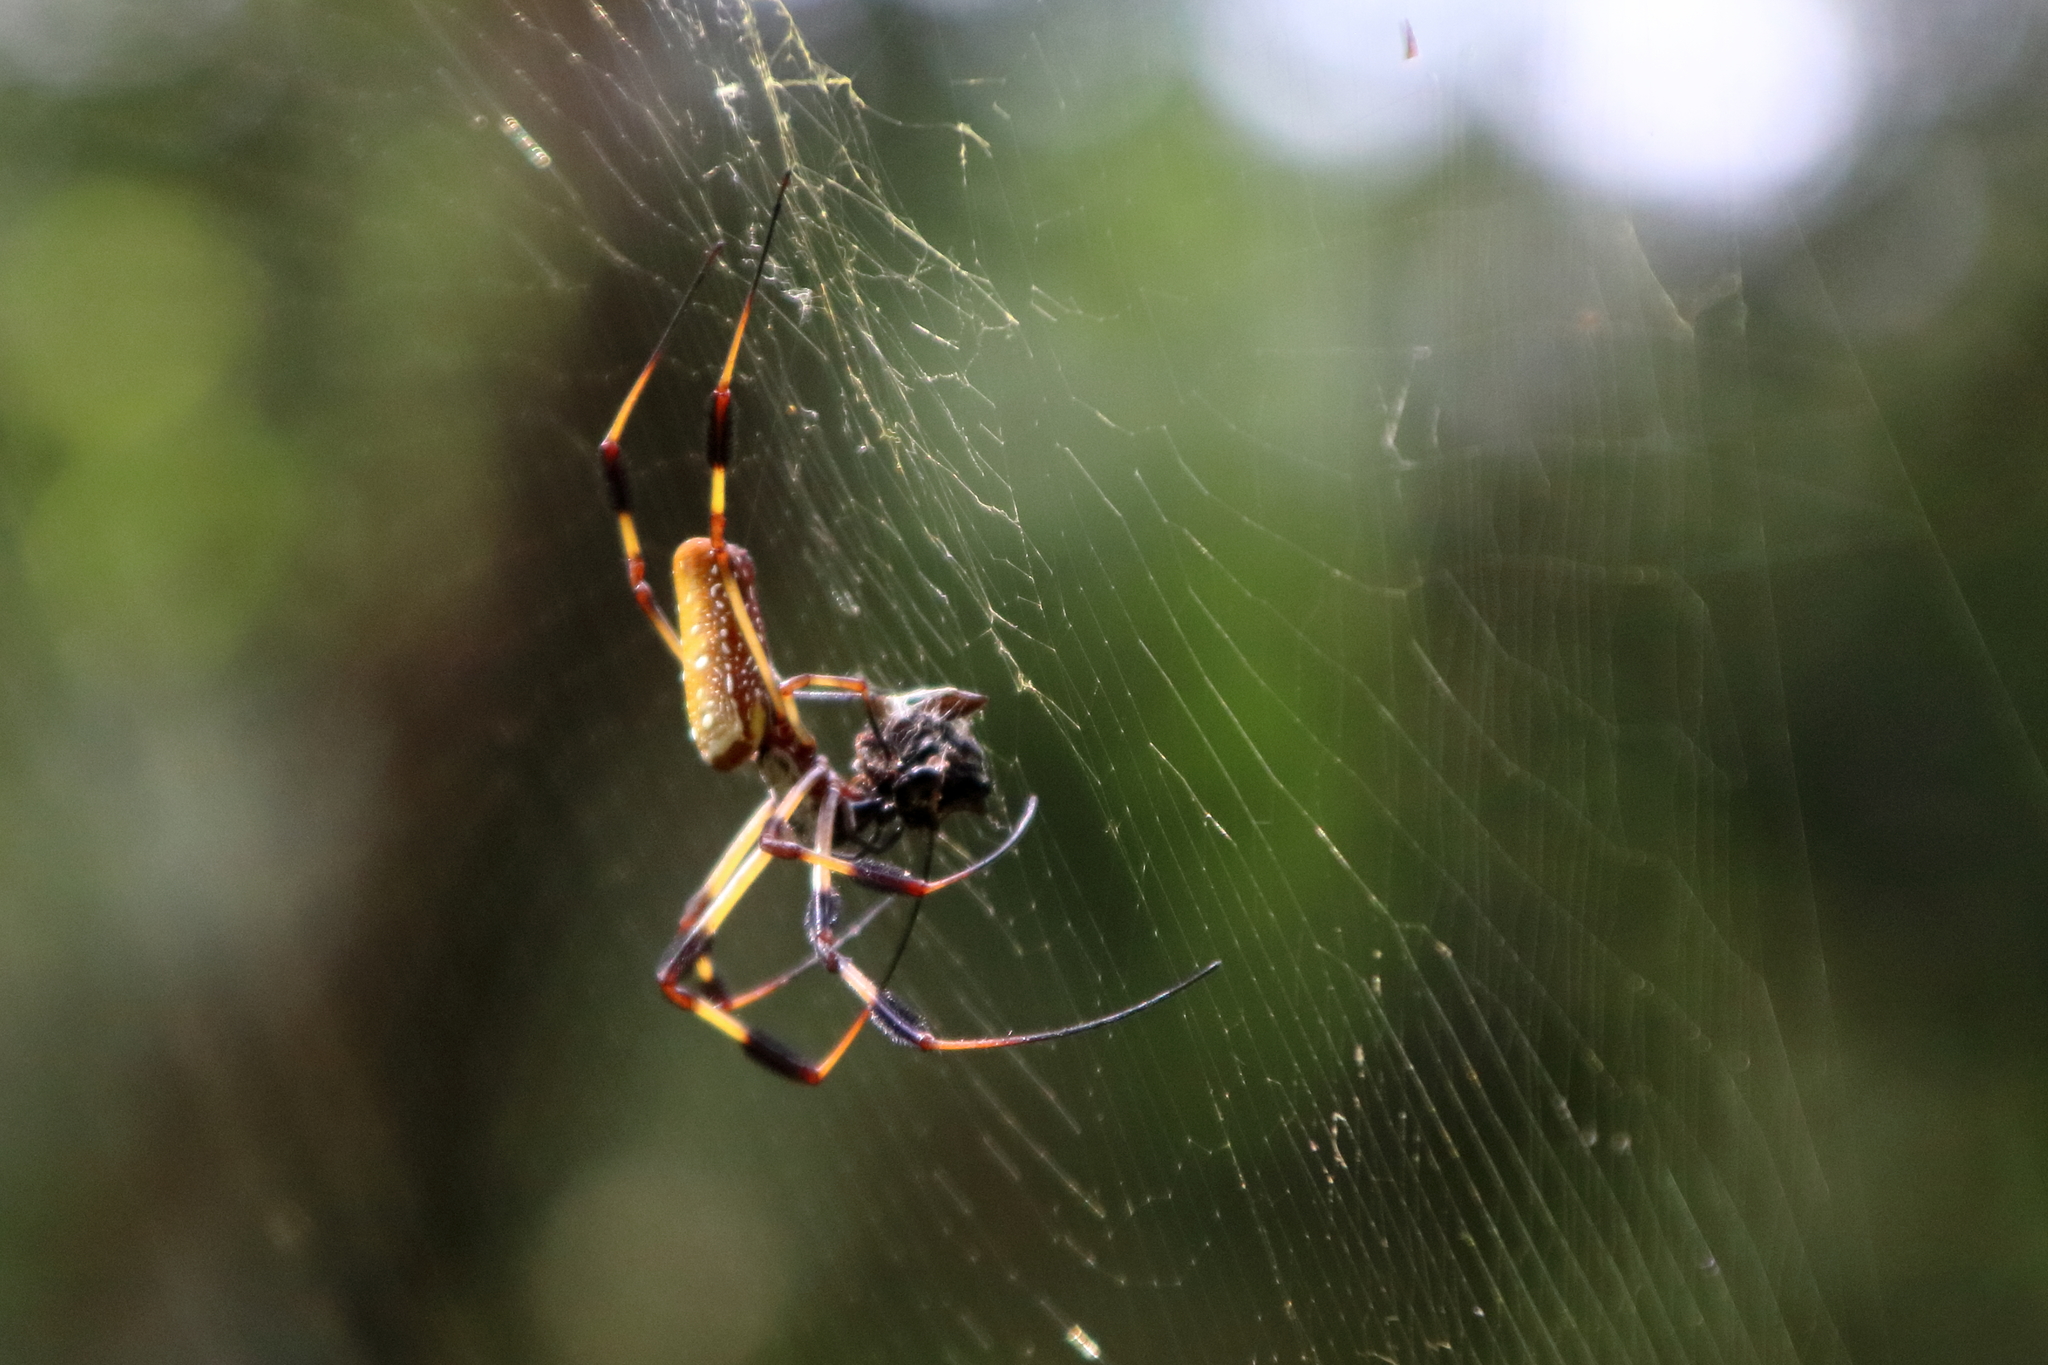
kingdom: Animalia
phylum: Arthropoda
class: Arachnida
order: Araneae
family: Araneidae
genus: Trichonephila
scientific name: Trichonephila clavipes
